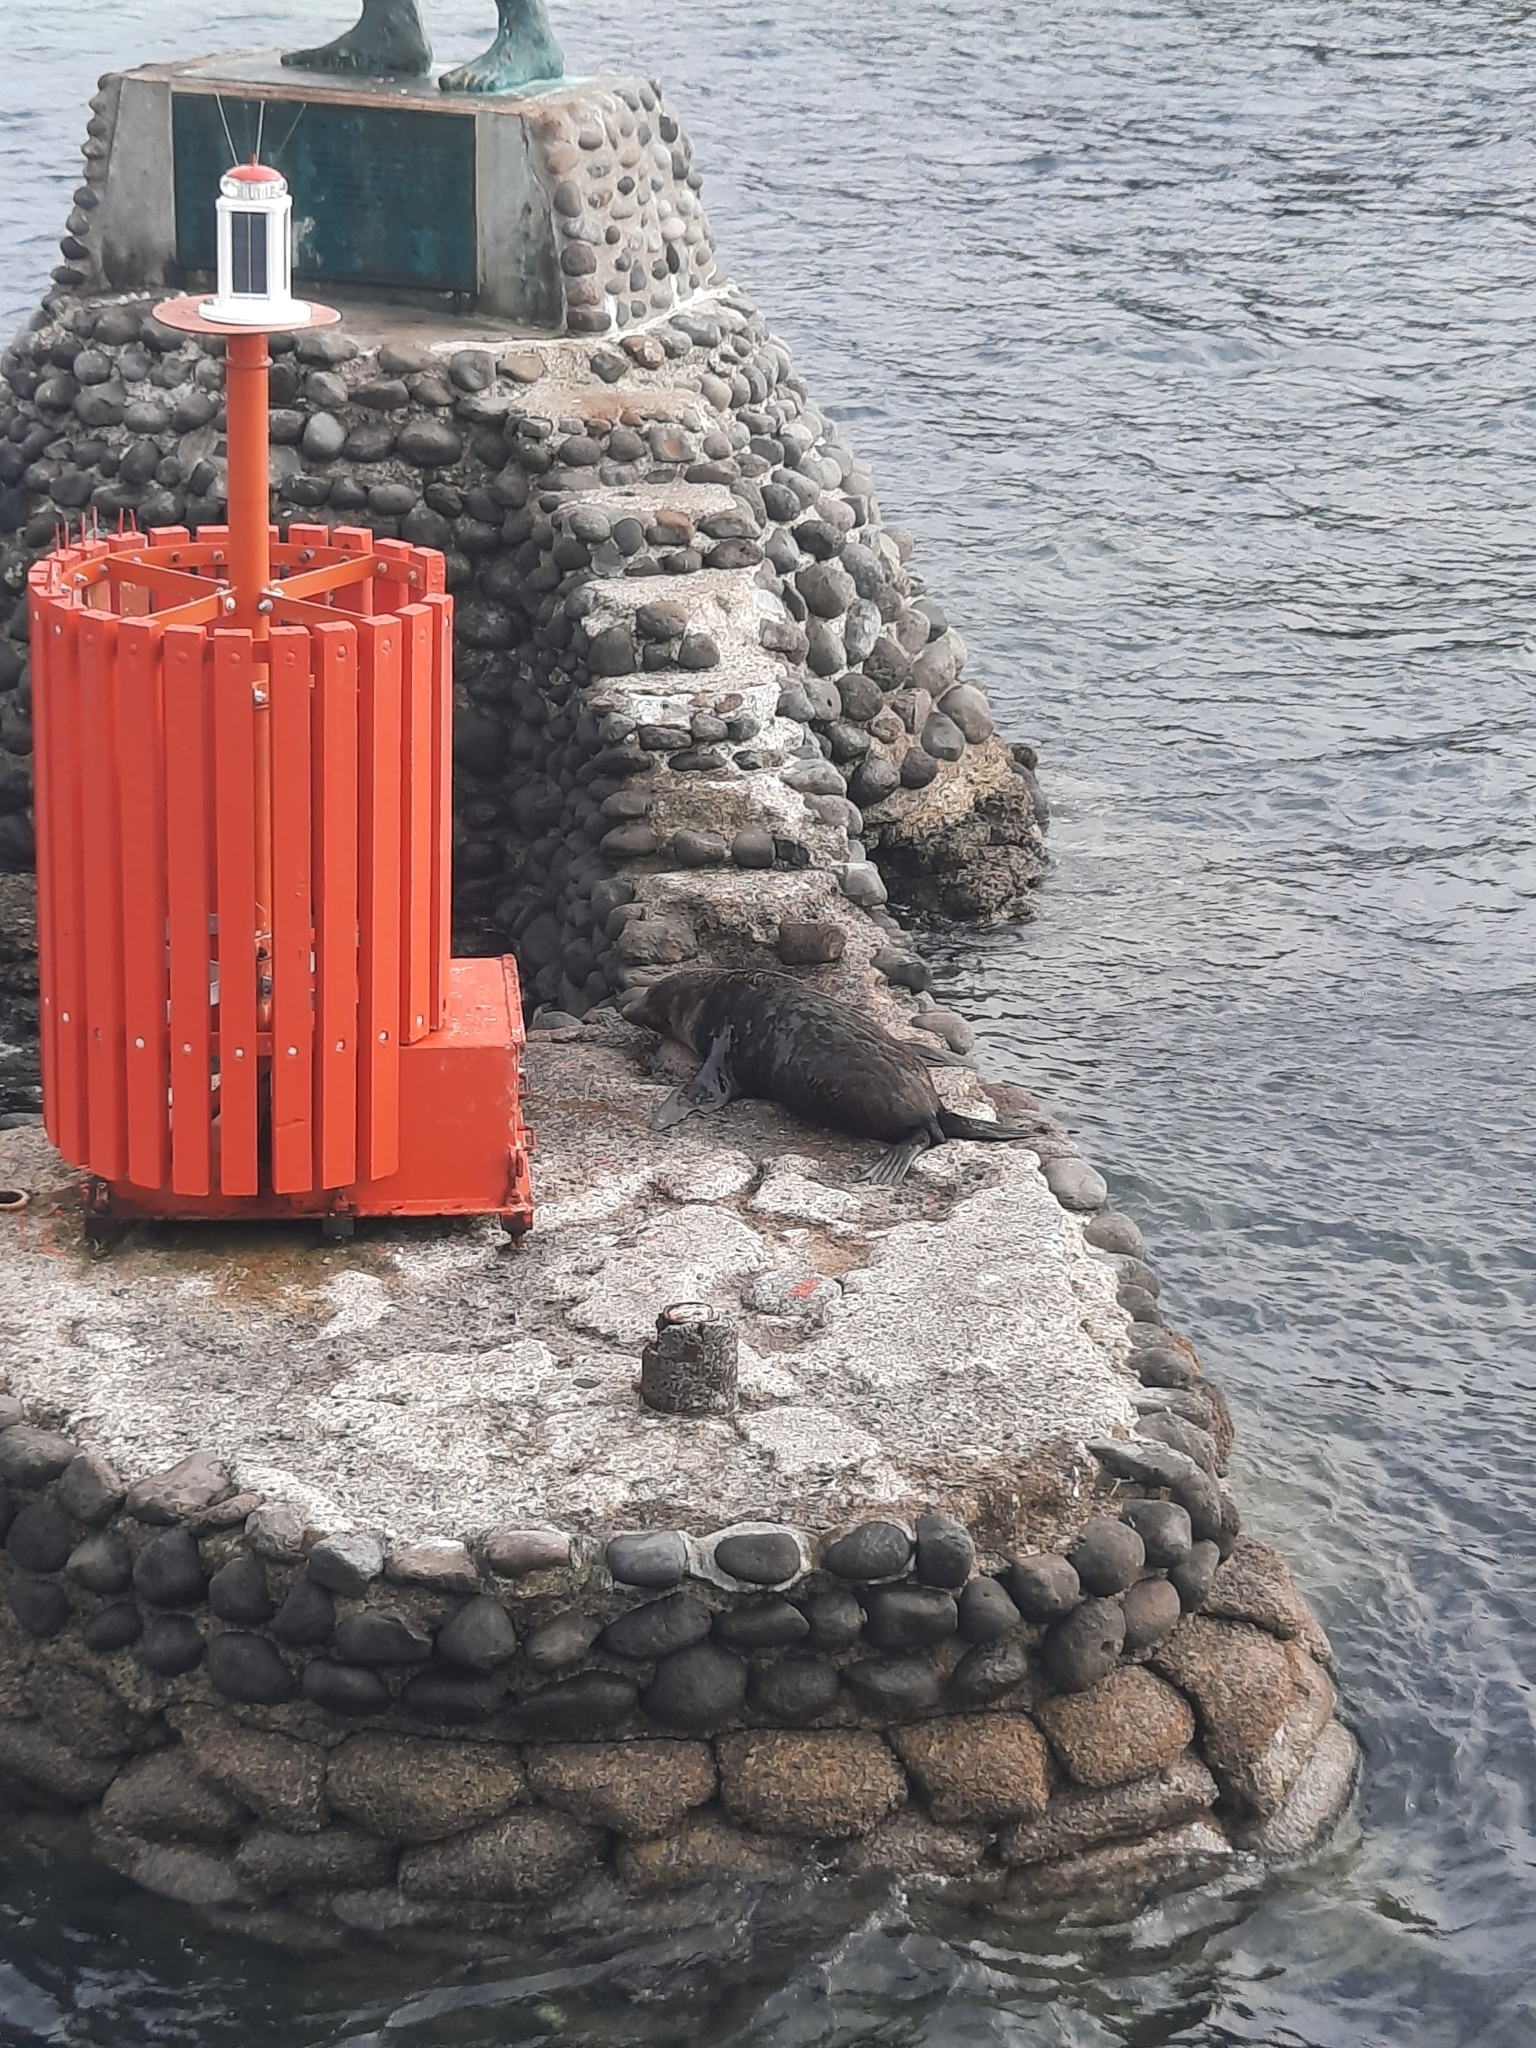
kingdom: Animalia
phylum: Chordata
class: Mammalia
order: Carnivora
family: Otariidae
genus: Arctocephalus
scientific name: Arctocephalus forsteri
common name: New zealand fur seal
